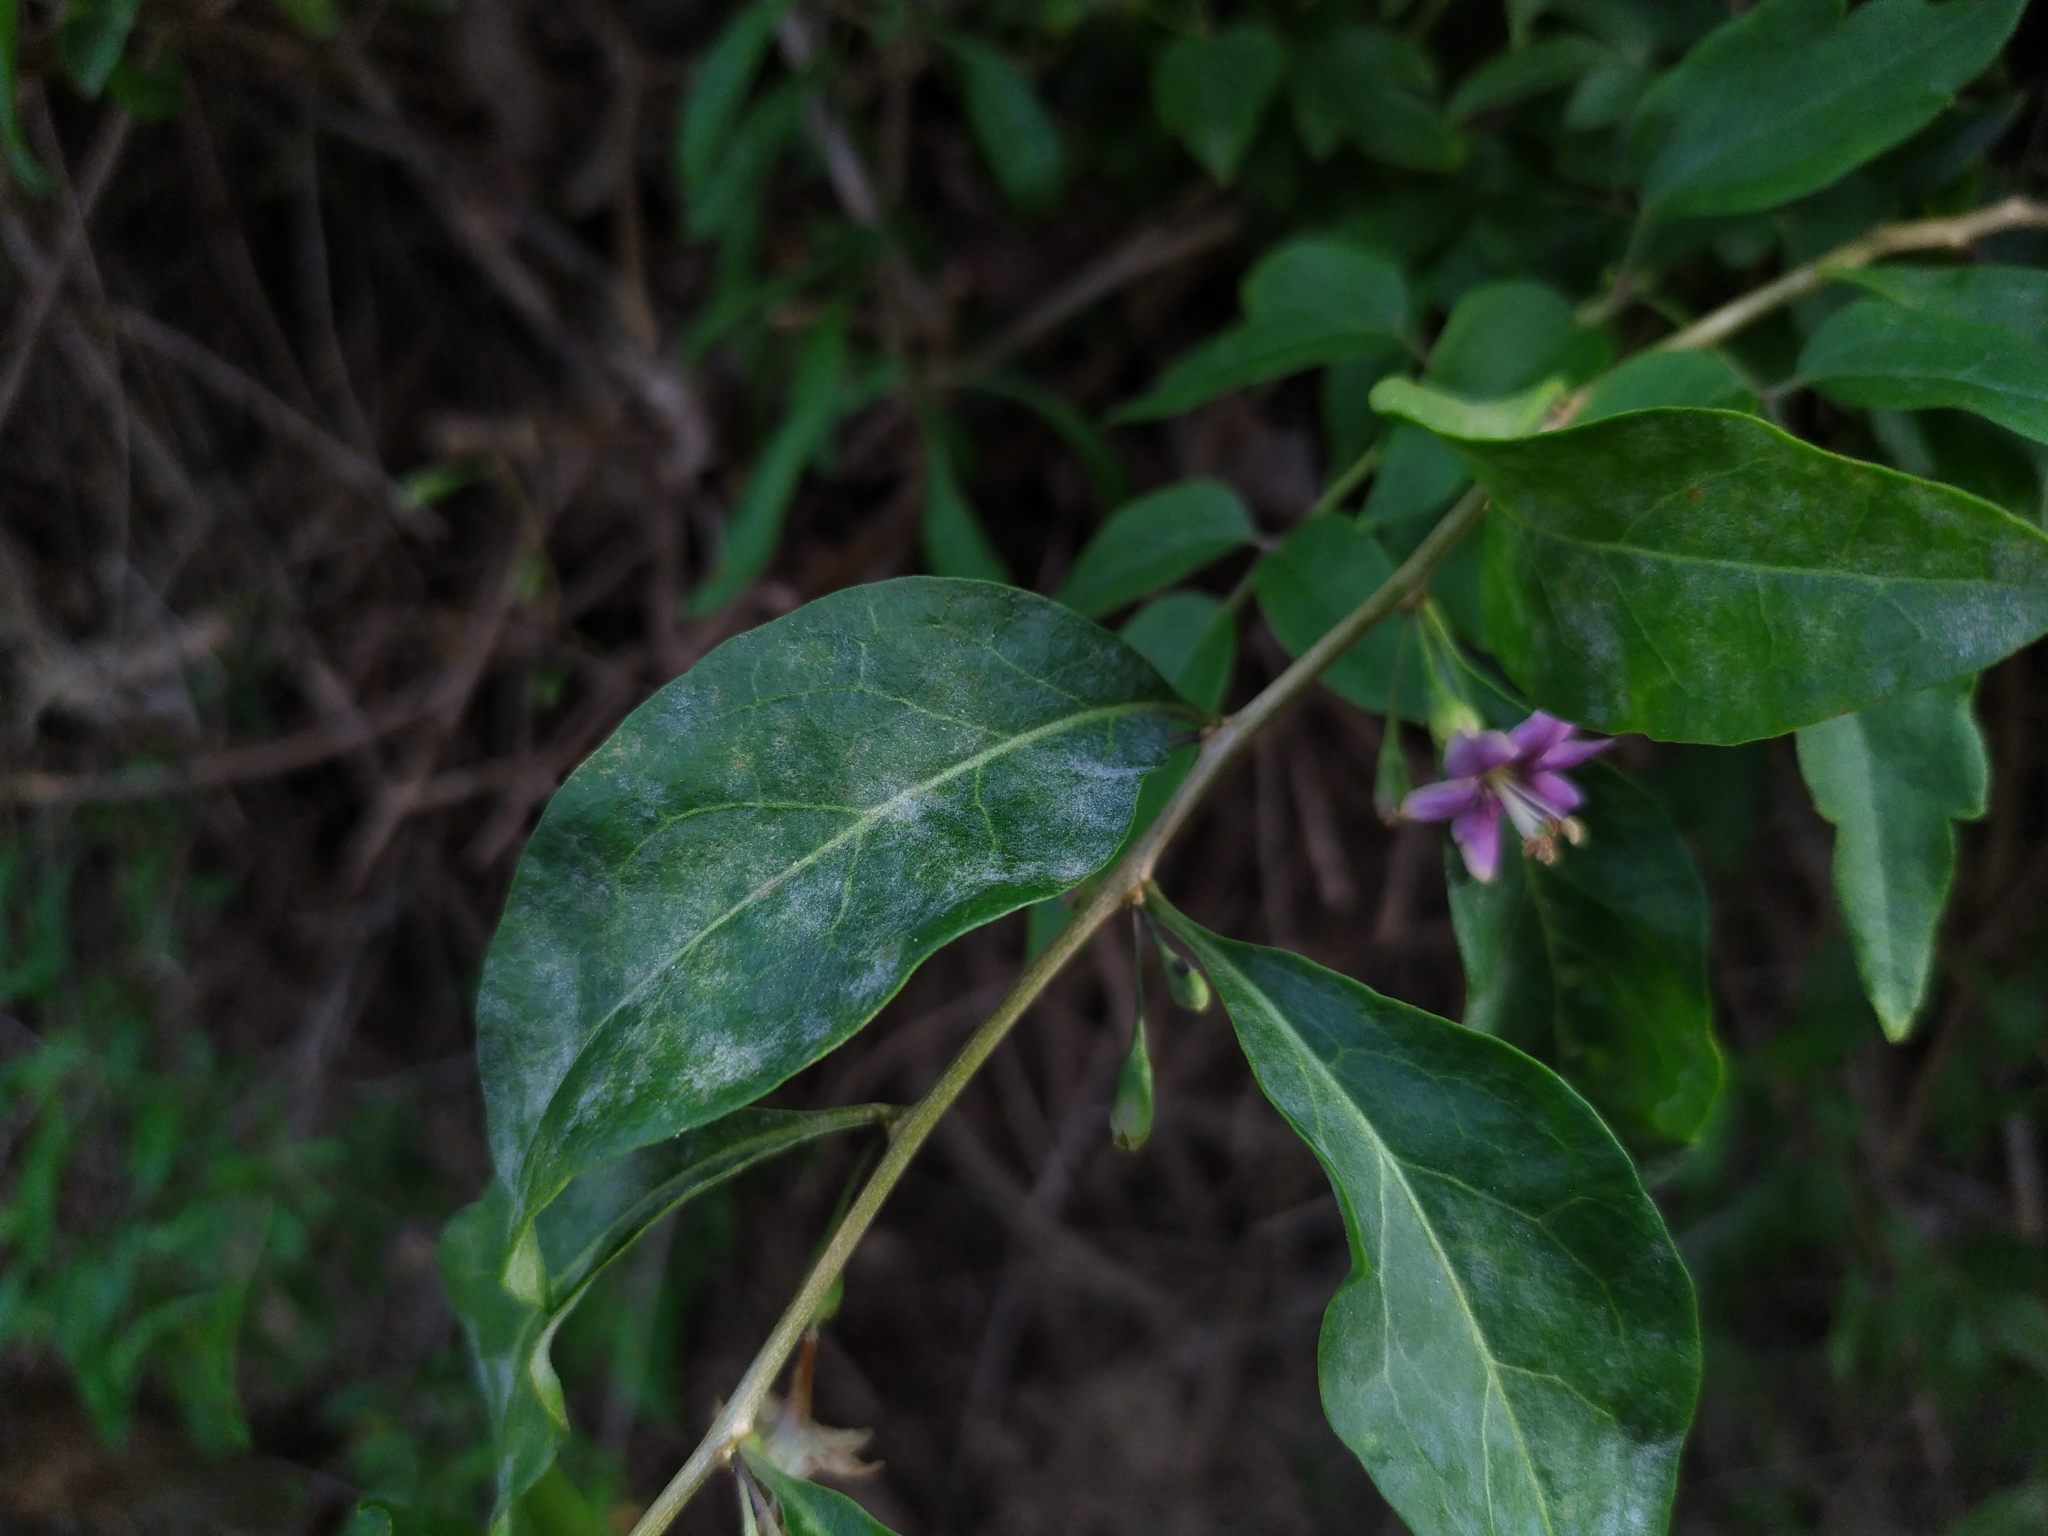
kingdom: Fungi
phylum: Ascomycota
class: Leotiomycetes
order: Helotiales
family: Erysiphaceae
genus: Erysiphe
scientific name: Erysiphe mougeotii
